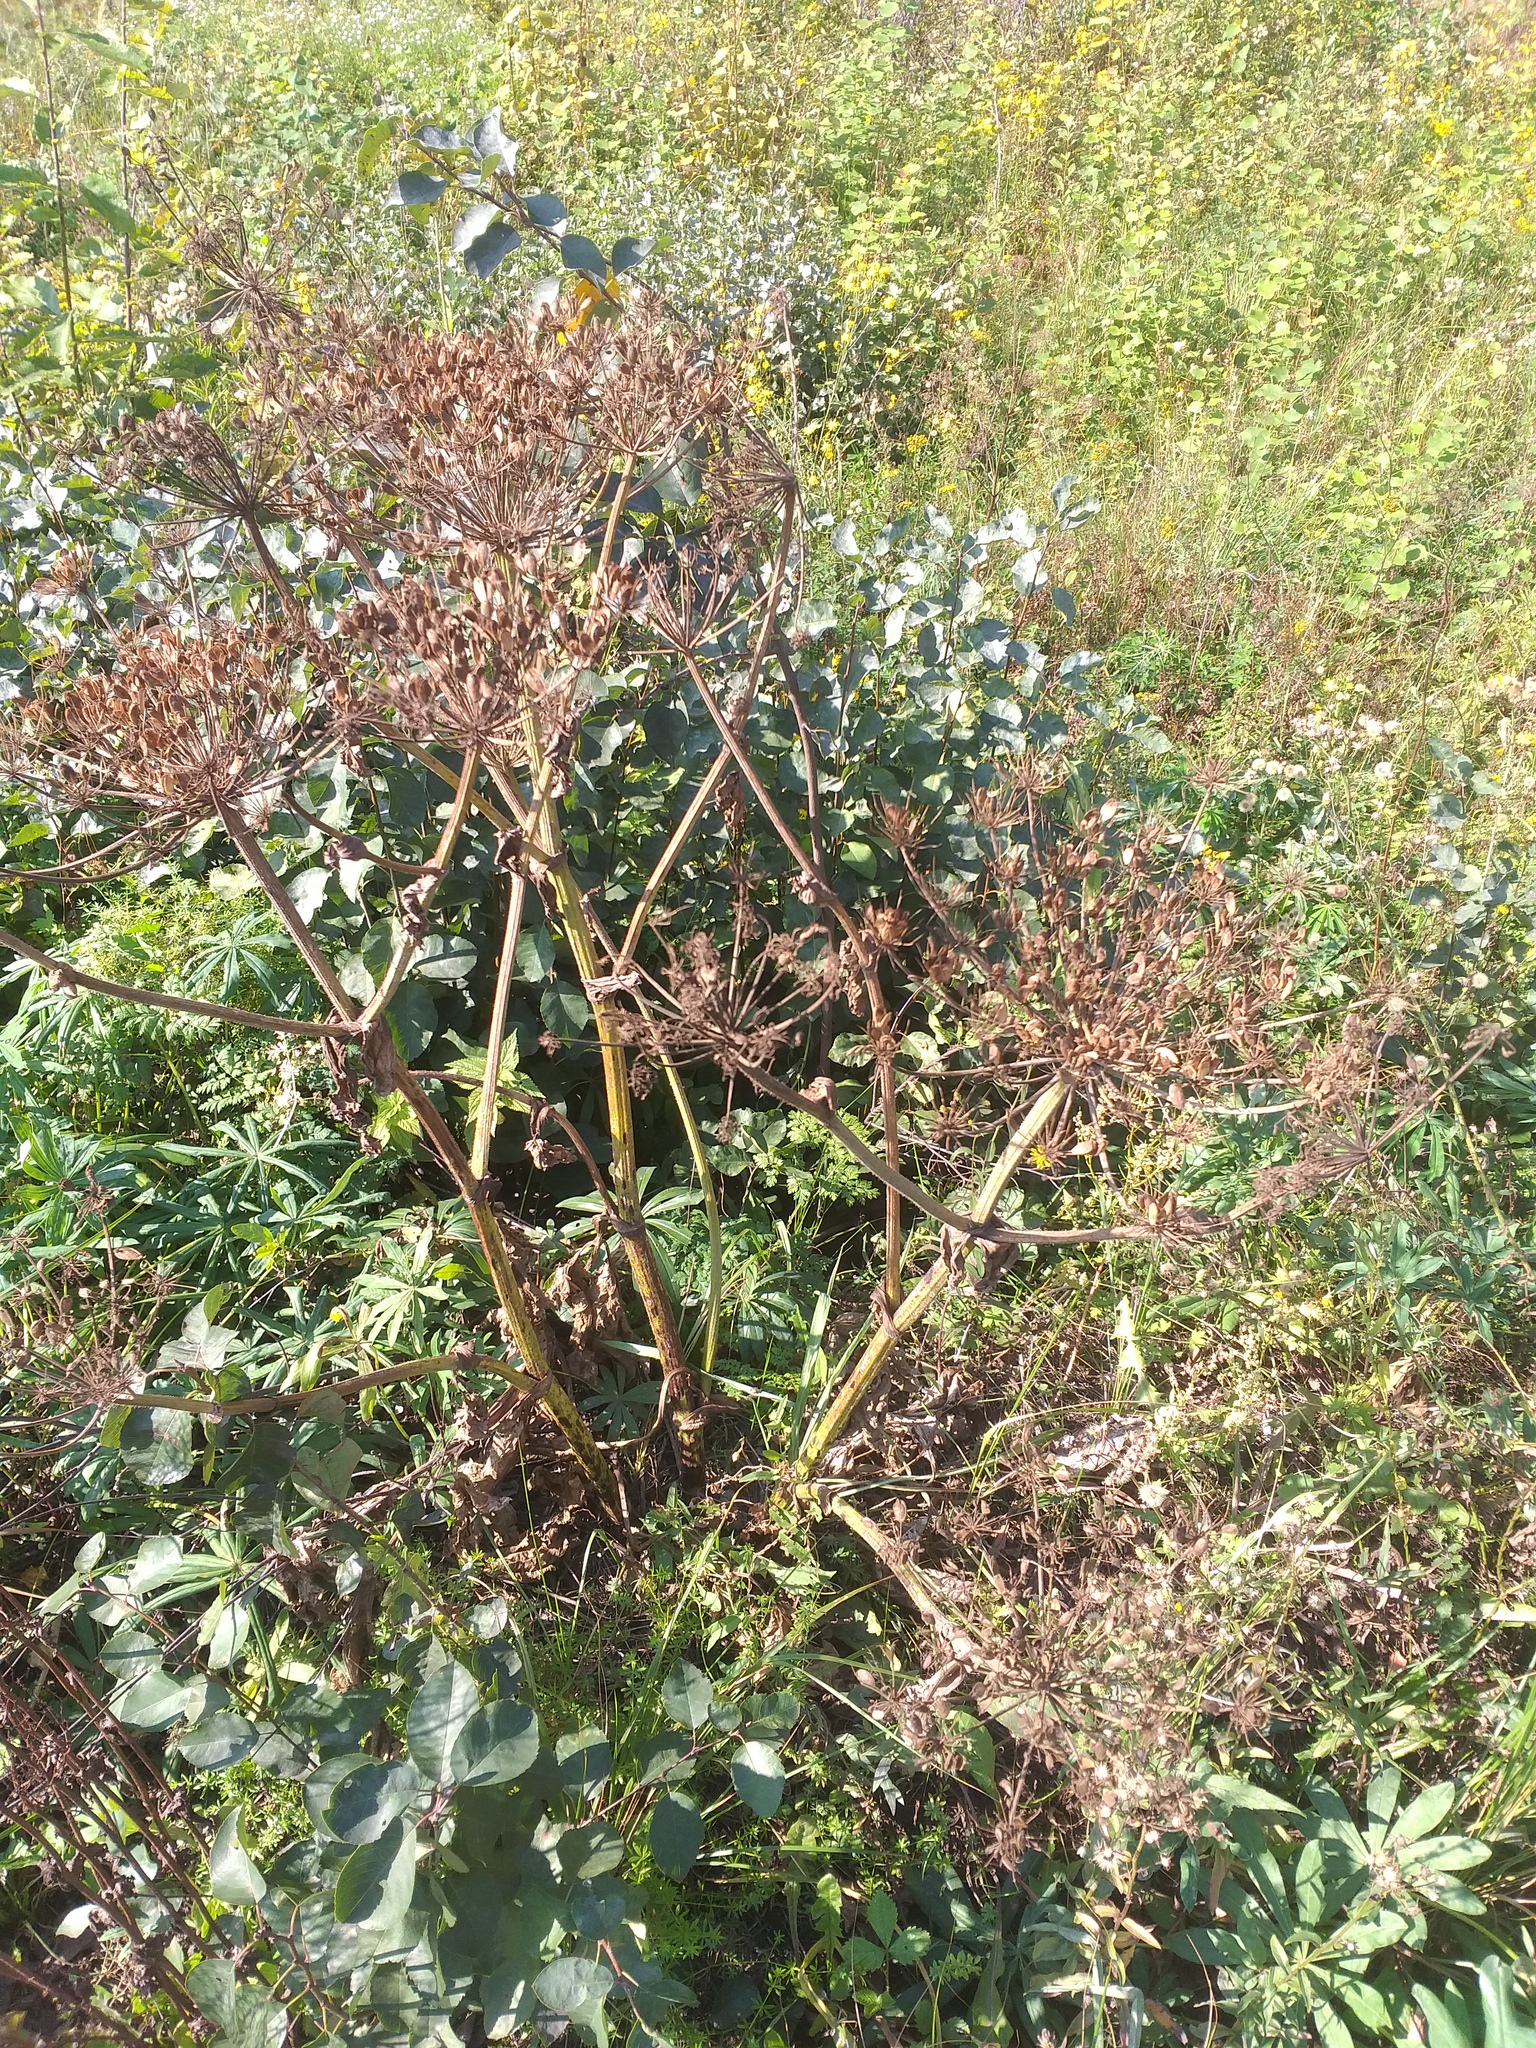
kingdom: Plantae
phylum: Tracheophyta
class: Magnoliopsida
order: Apiales
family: Apiaceae
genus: Heracleum
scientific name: Heracleum sphondylium
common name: Hogweed
